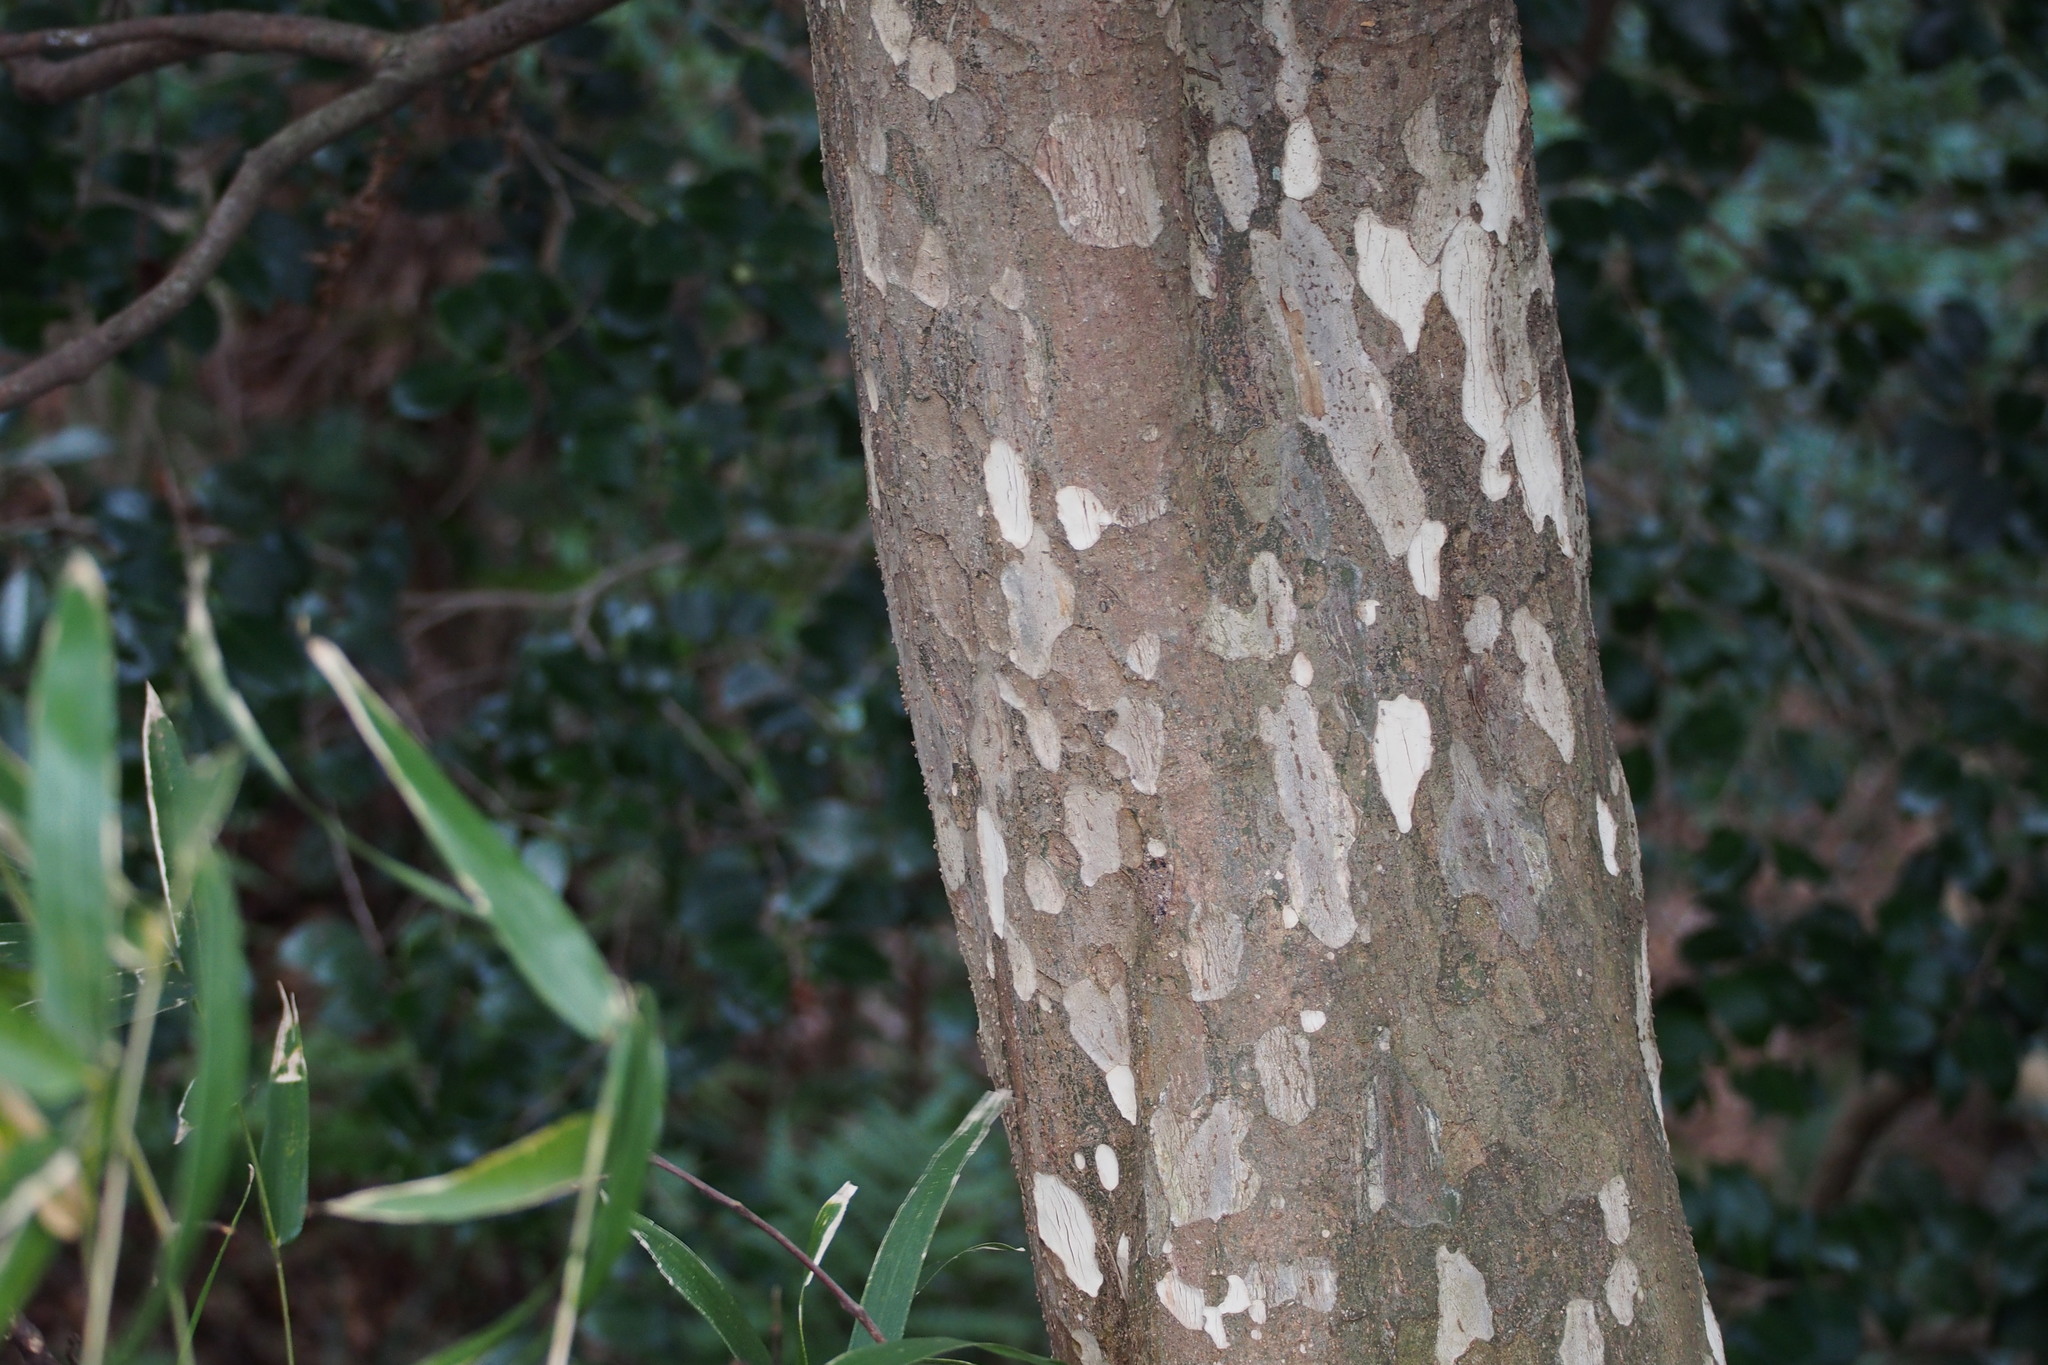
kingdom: Plantae
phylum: Tracheophyta
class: Magnoliopsida
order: Laurales
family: Lauraceae
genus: Litsea
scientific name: Litsea coreana
